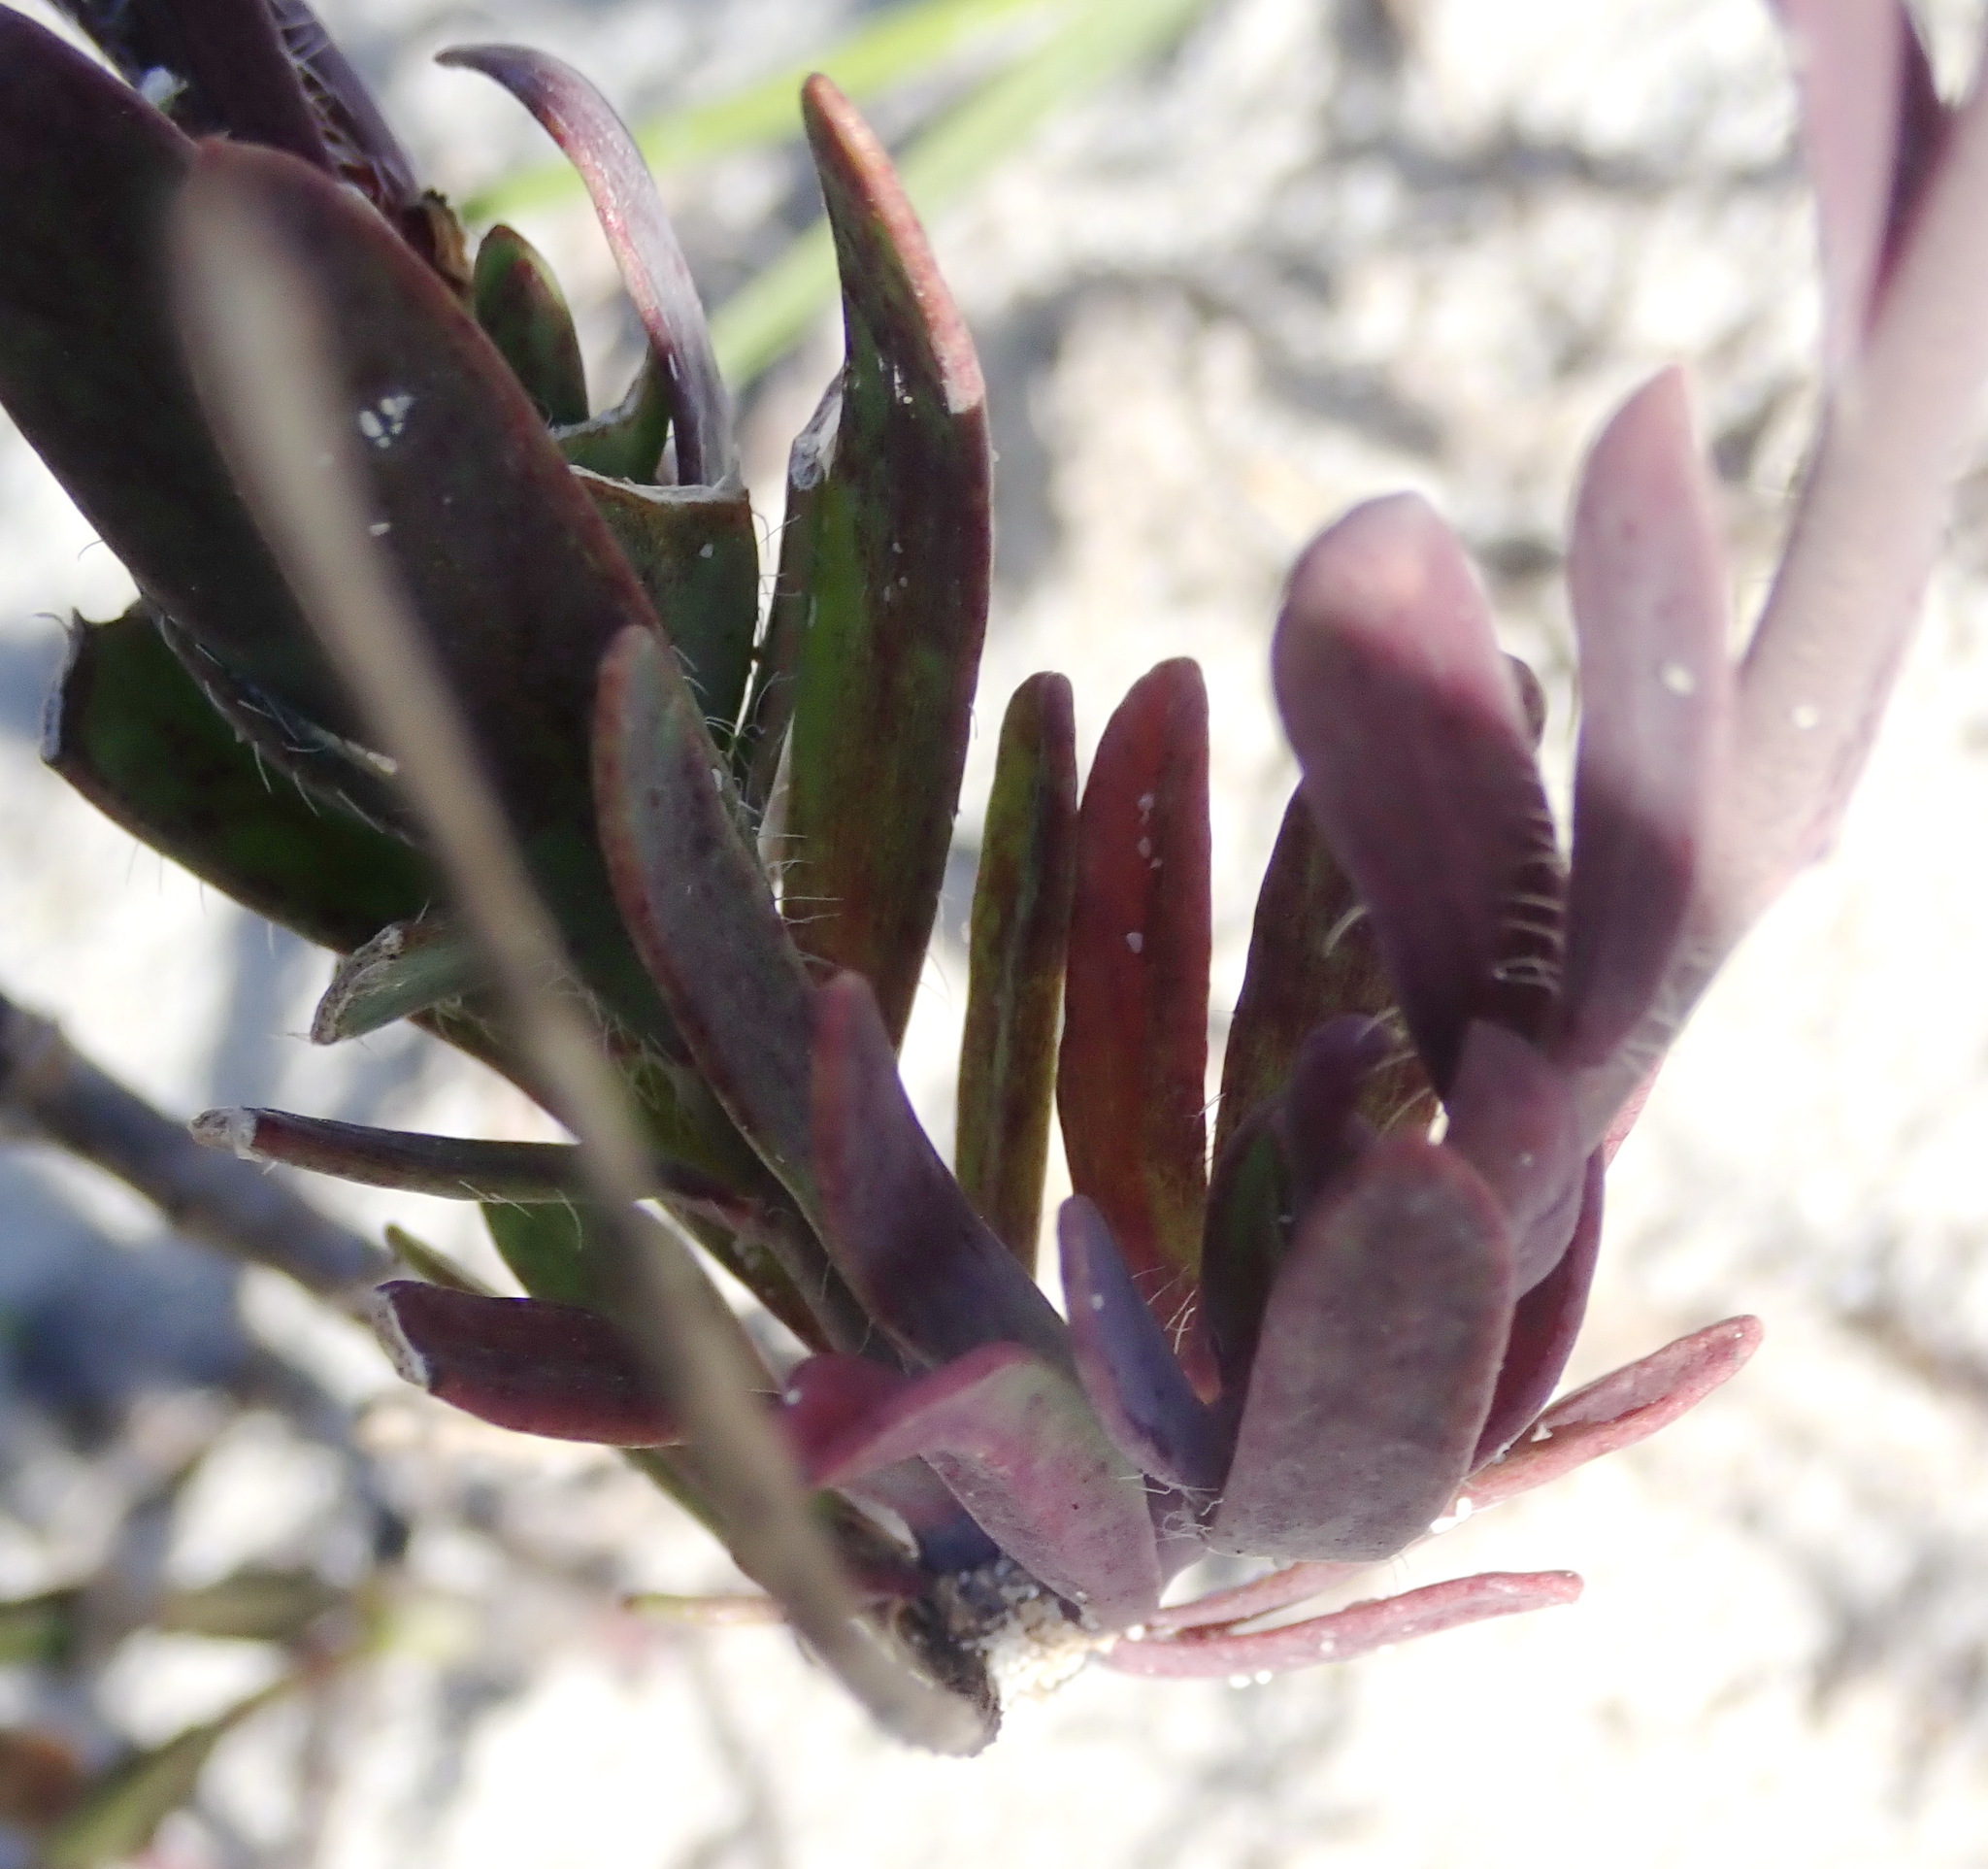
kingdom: Plantae
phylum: Tracheophyta
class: Magnoliopsida
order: Brassicales
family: Brassicaceae
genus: Heliophila
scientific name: Heliophila linearis
